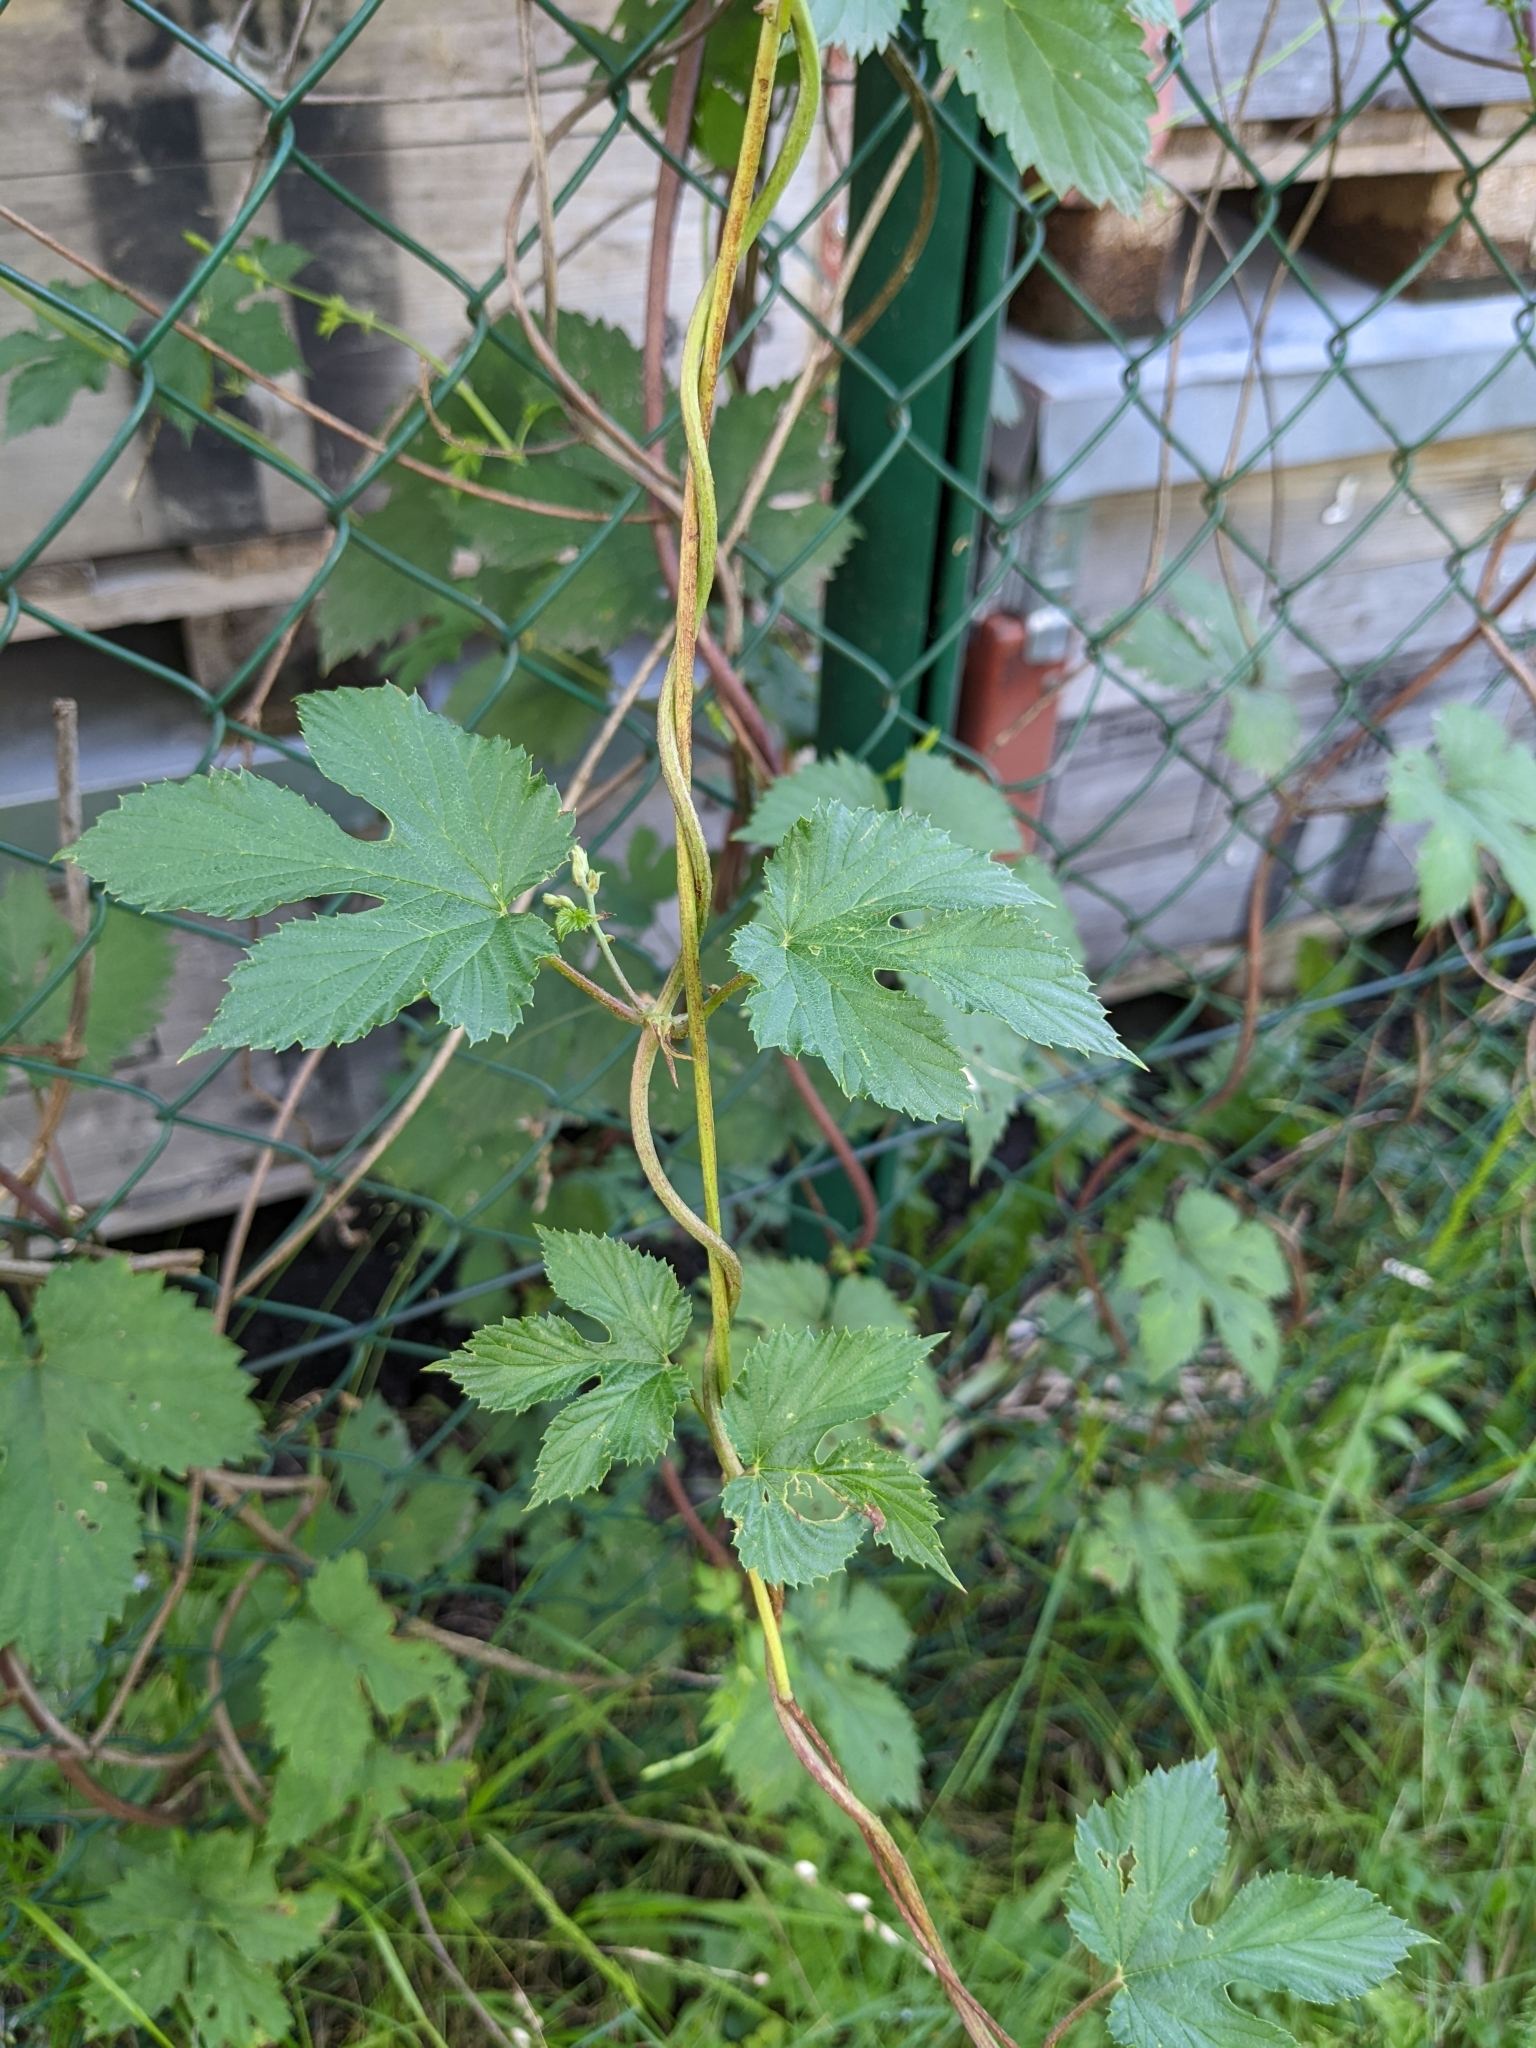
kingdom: Plantae
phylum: Tracheophyta
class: Magnoliopsida
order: Rosales
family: Cannabaceae
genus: Humulus
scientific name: Humulus lupulus
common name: Hop
